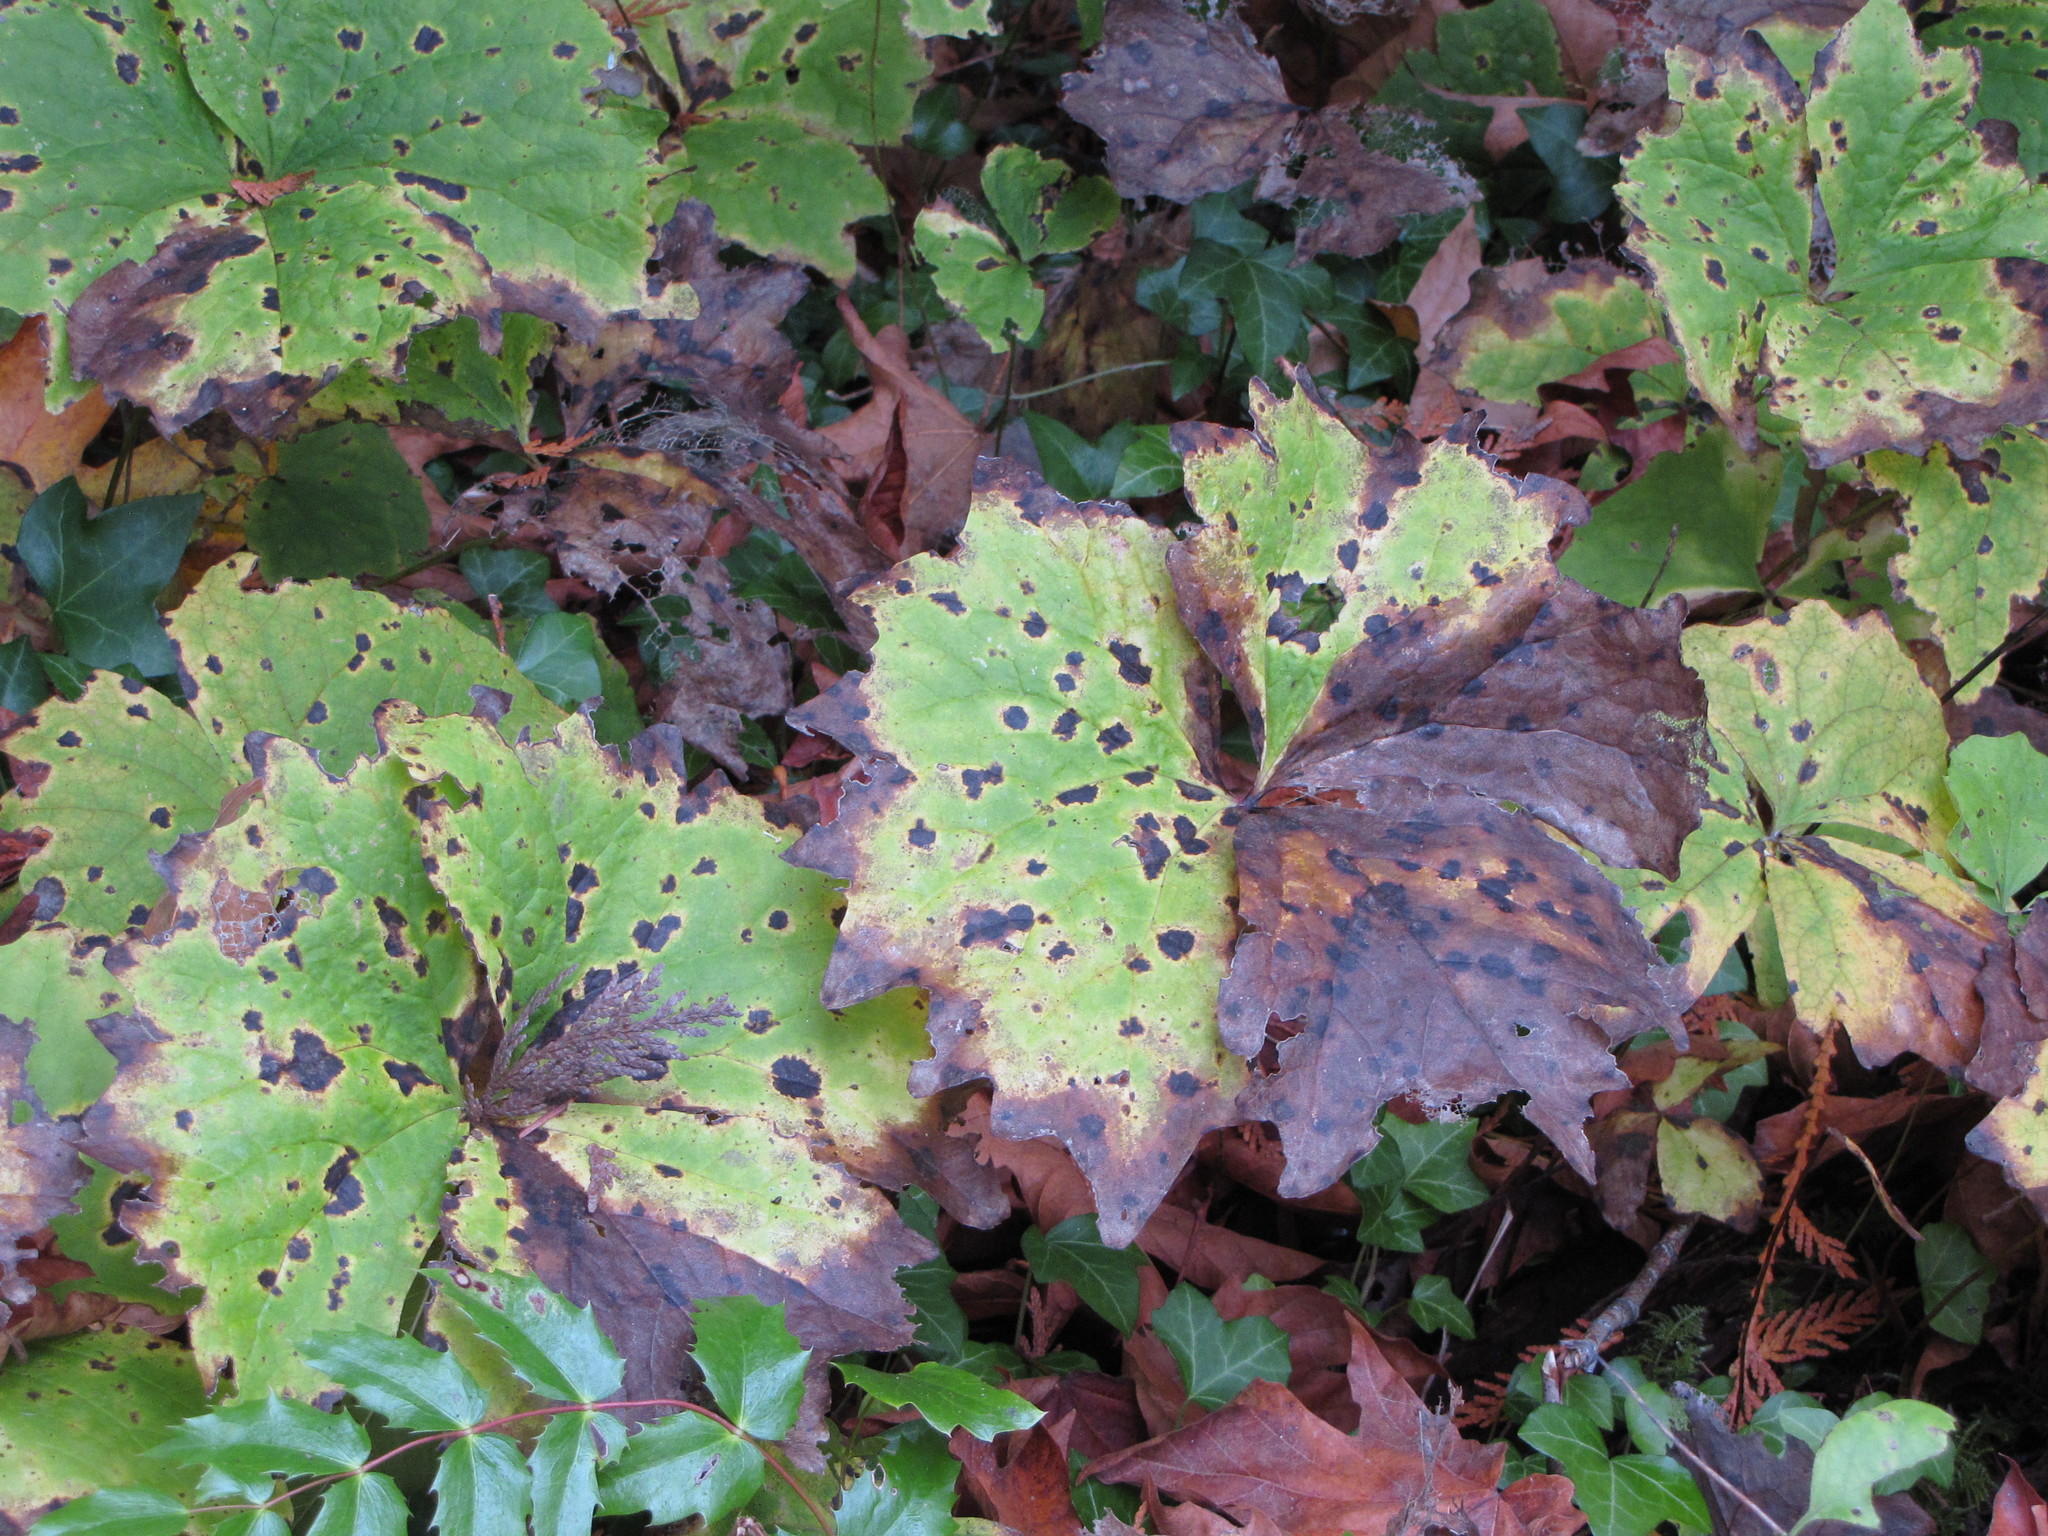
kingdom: Plantae
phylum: Tracheophyta
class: Magnoliopsida
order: Ranunculales
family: Berberidaceae
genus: Achlys
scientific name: Achlys triphylla
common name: Vanilla-leaf
